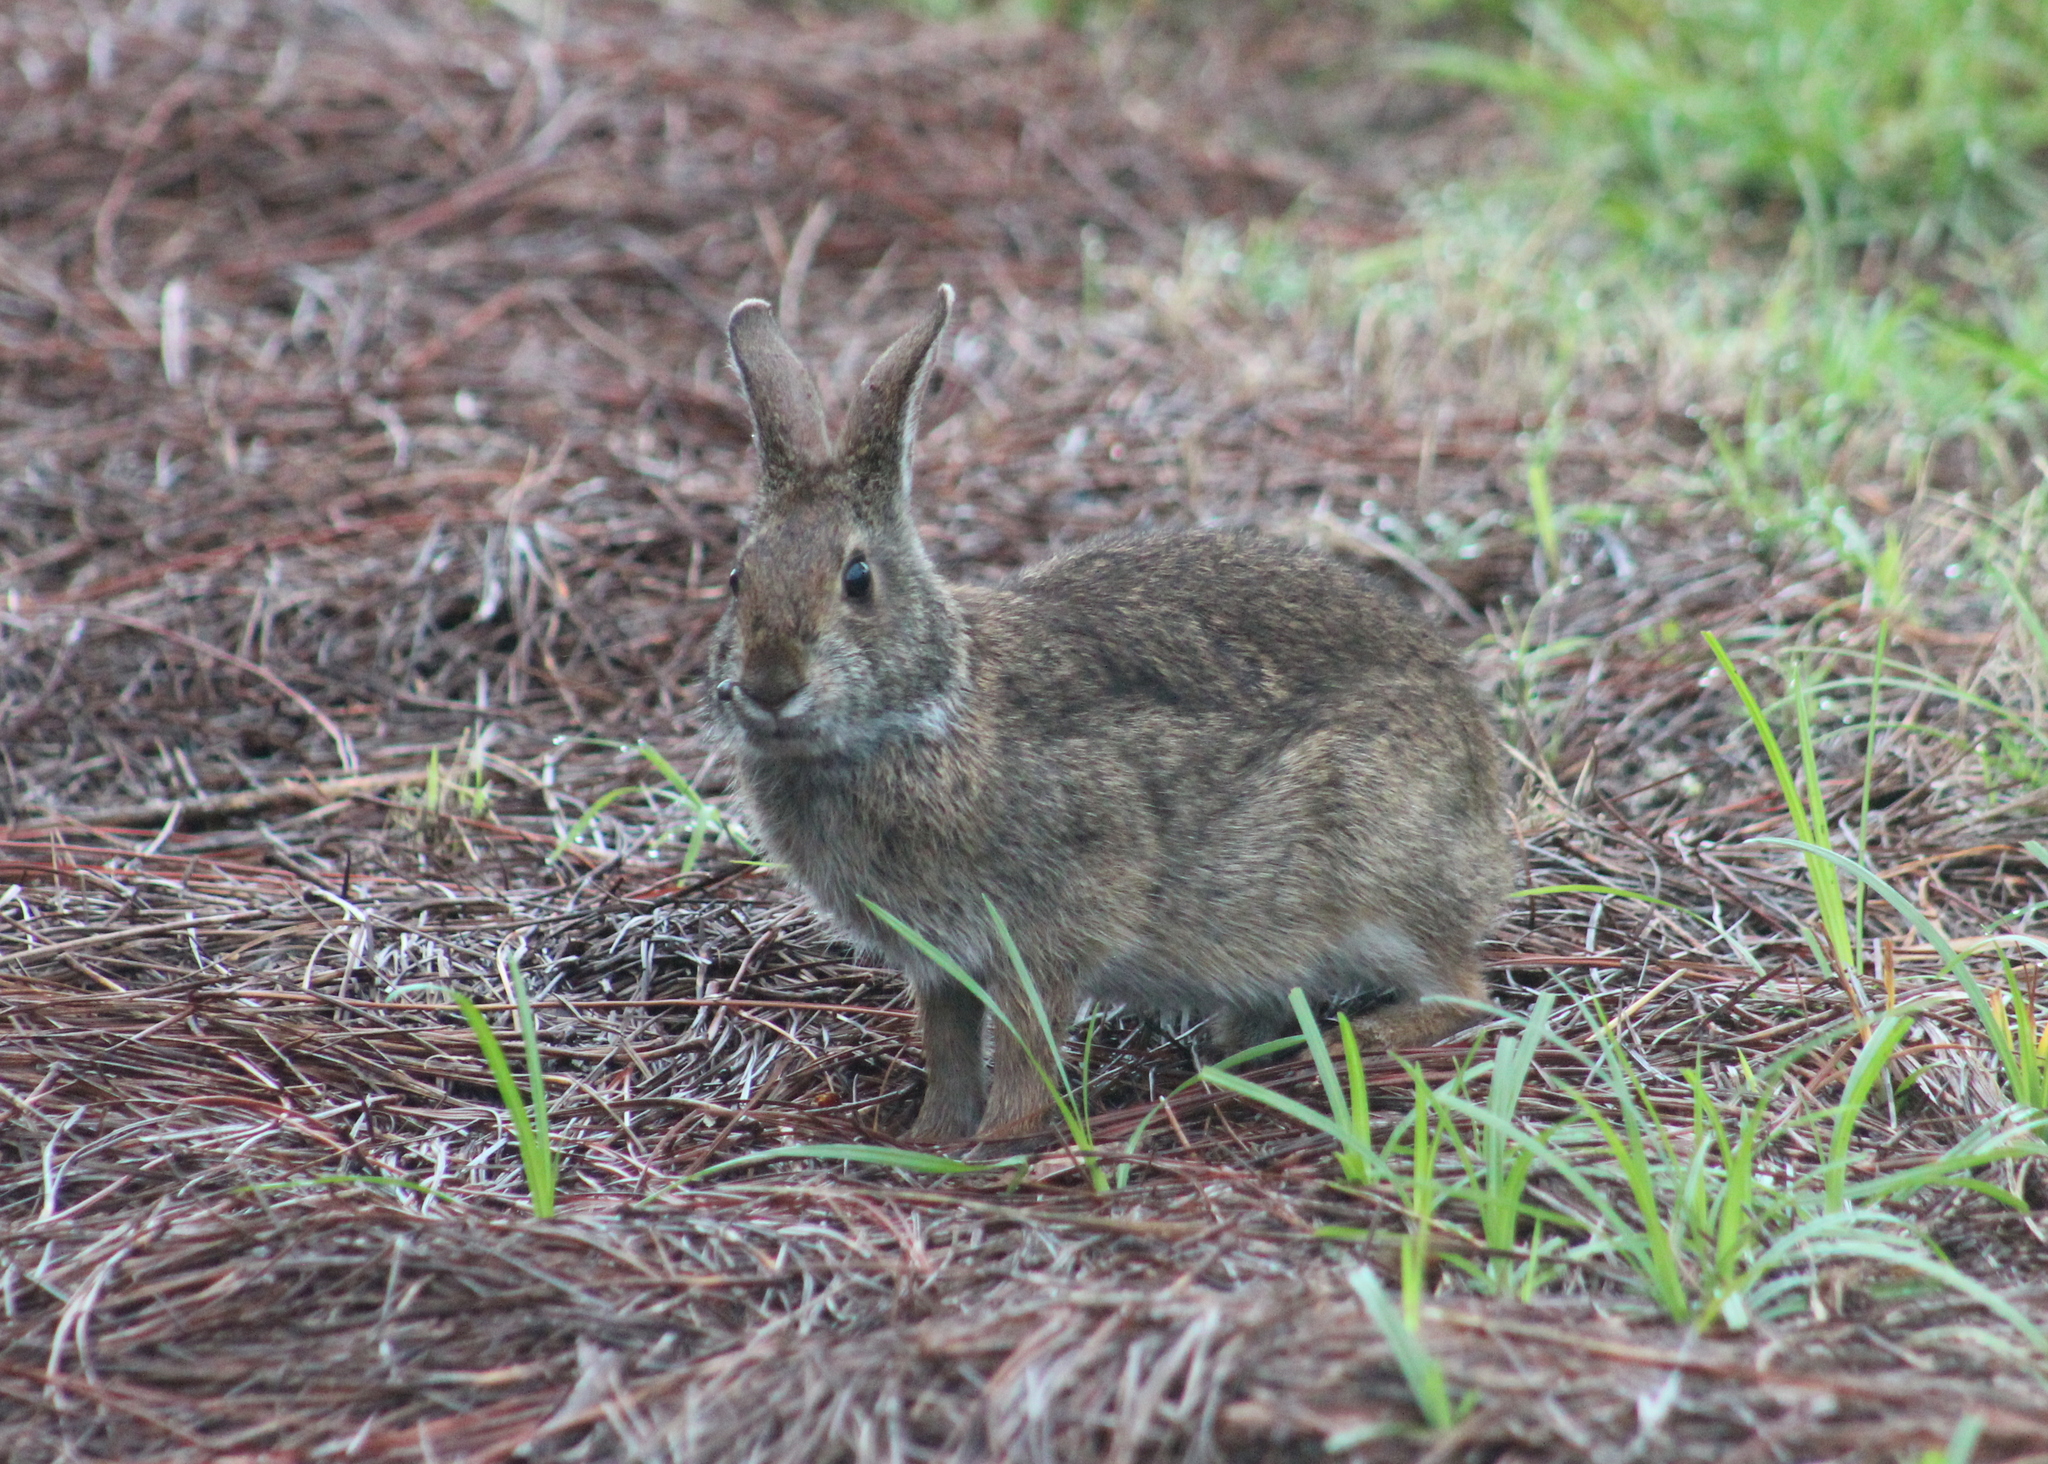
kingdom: Animalia
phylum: Chordata
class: Mammalia
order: Lagomorpha
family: Leporidae
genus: Sylvilagus
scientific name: Sylvilagus palustris
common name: Marsh rabbit
